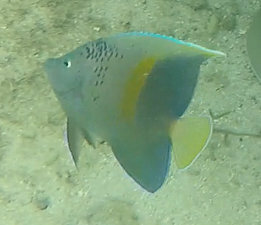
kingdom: Animalia
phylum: Chordata
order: Perciformes
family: Pomacanthidae
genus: Pomacanthus
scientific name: Pomacanthus maculosus
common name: Yellowbar angelfish
